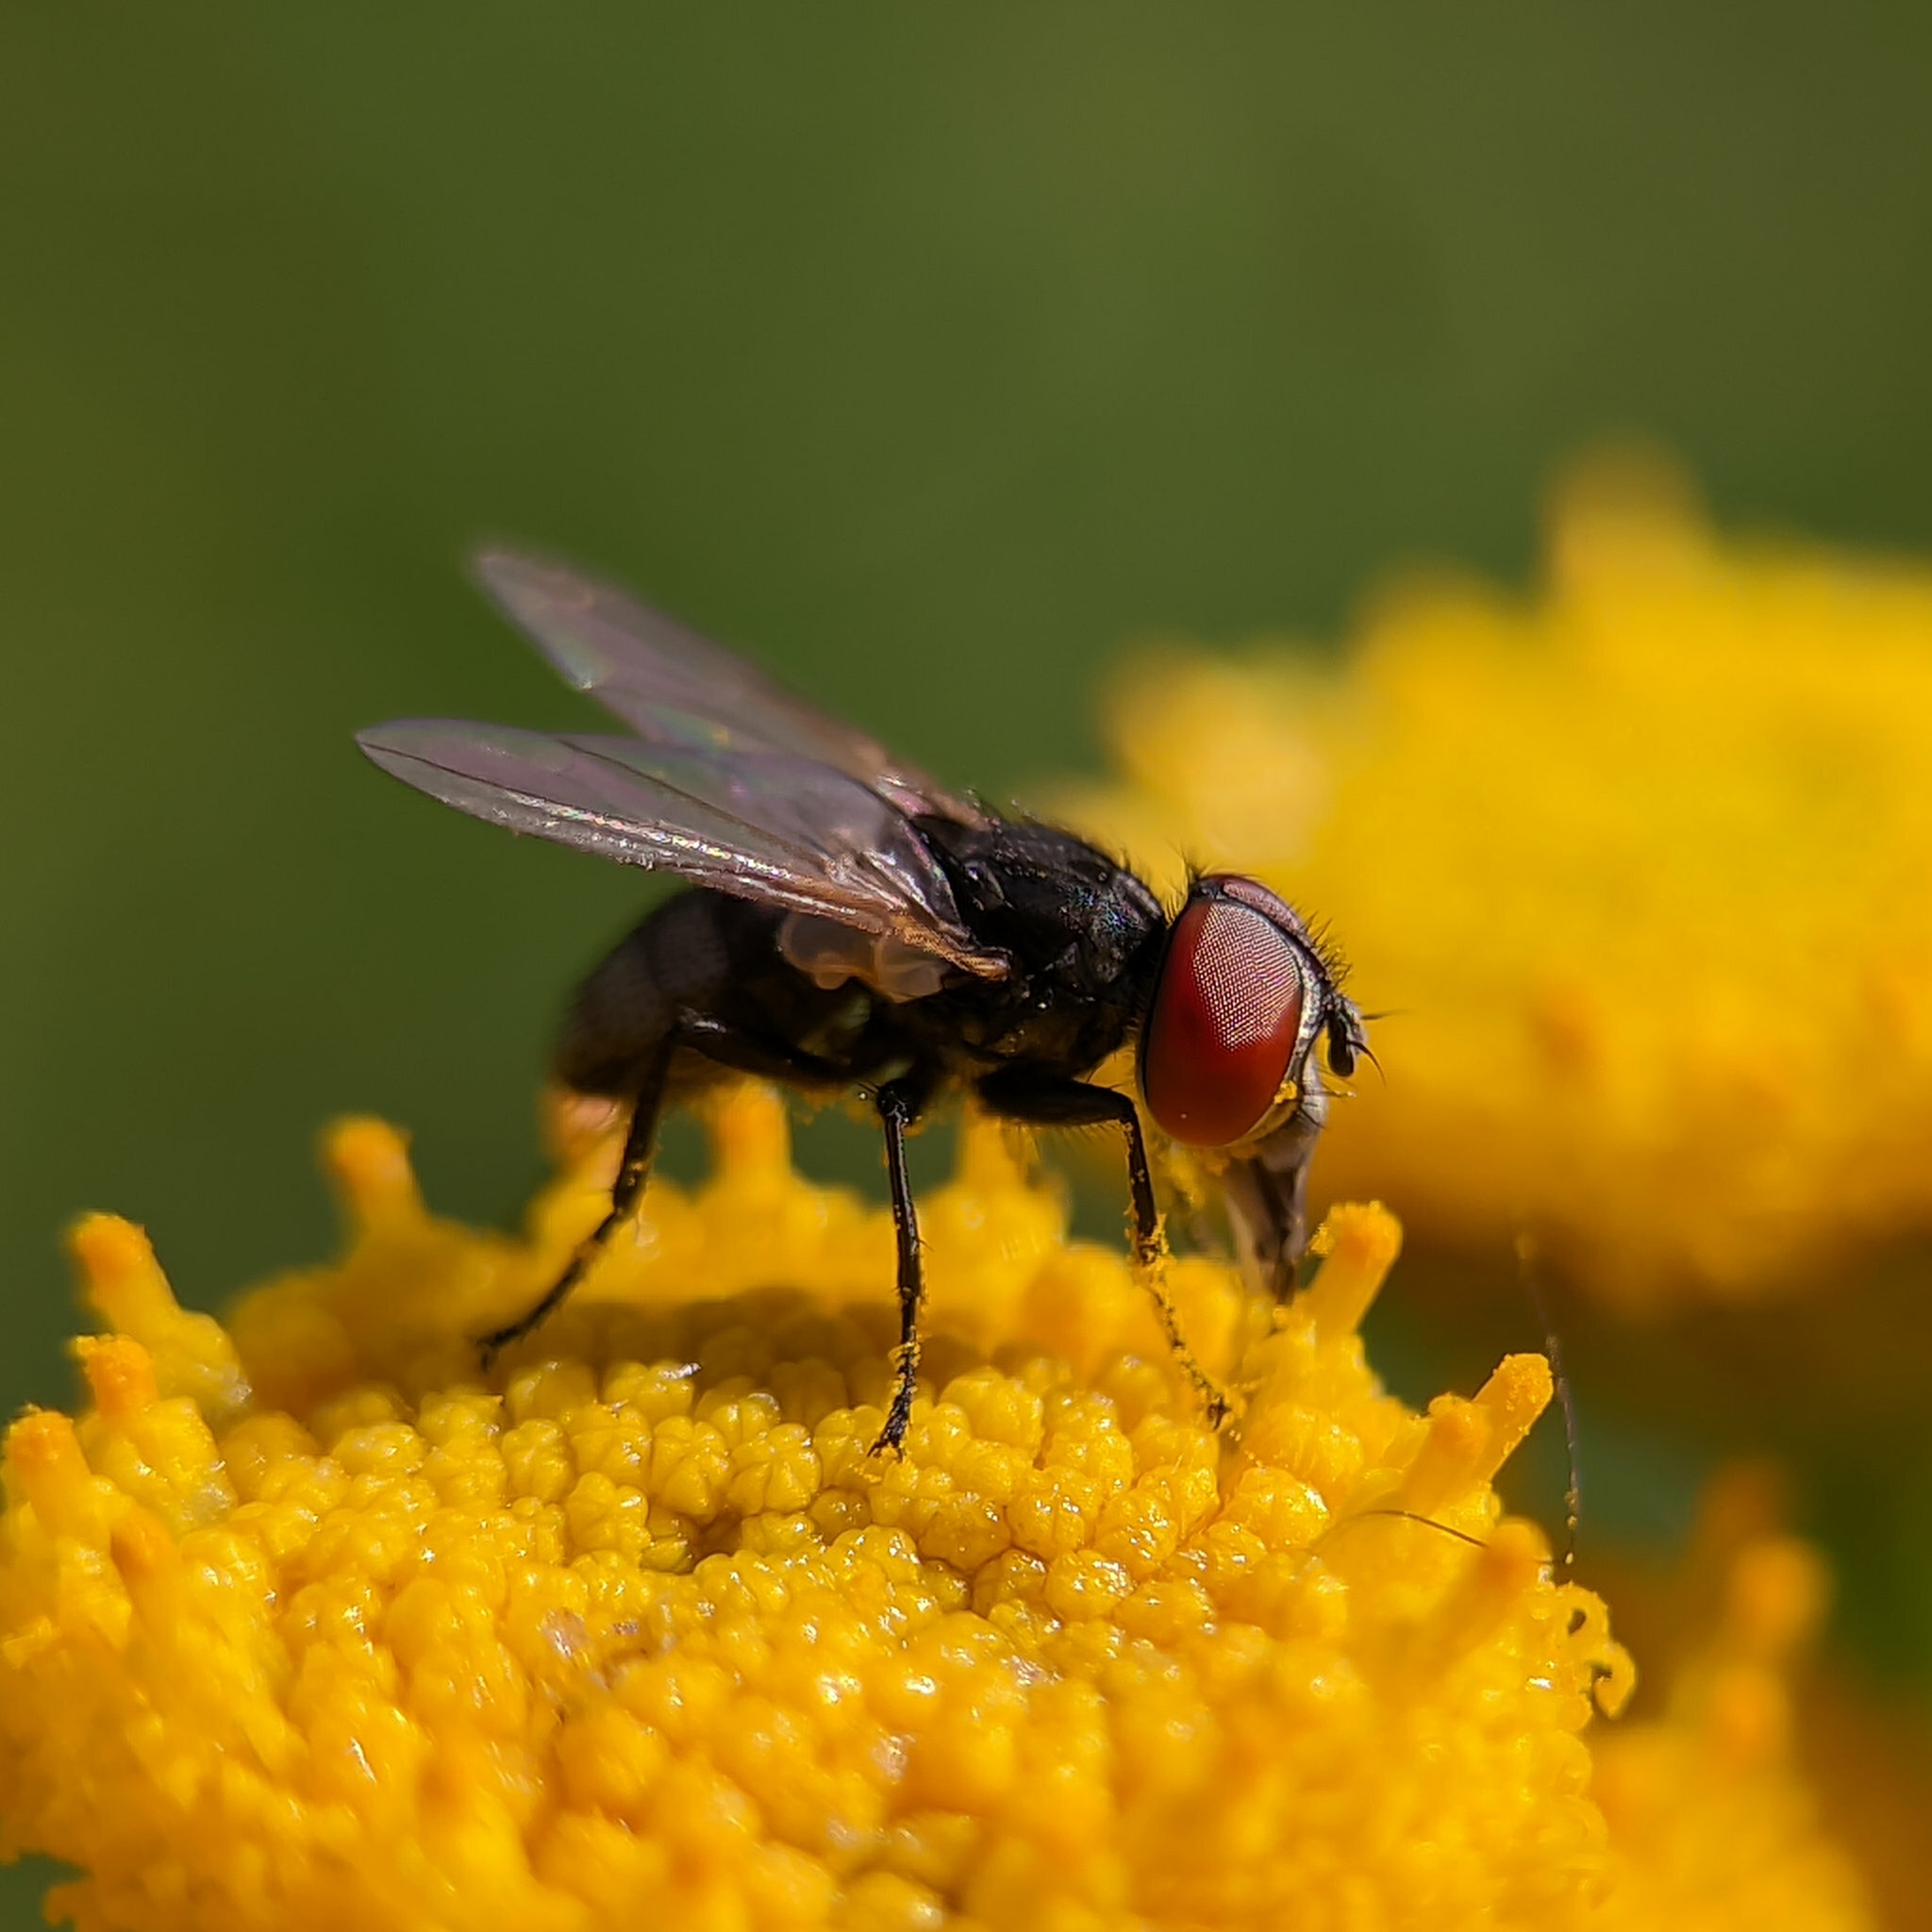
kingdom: Animalia
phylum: Arthropoda
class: Insecta
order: Diptera
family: Tachinidae
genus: Phasia
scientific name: Phasia obesa
